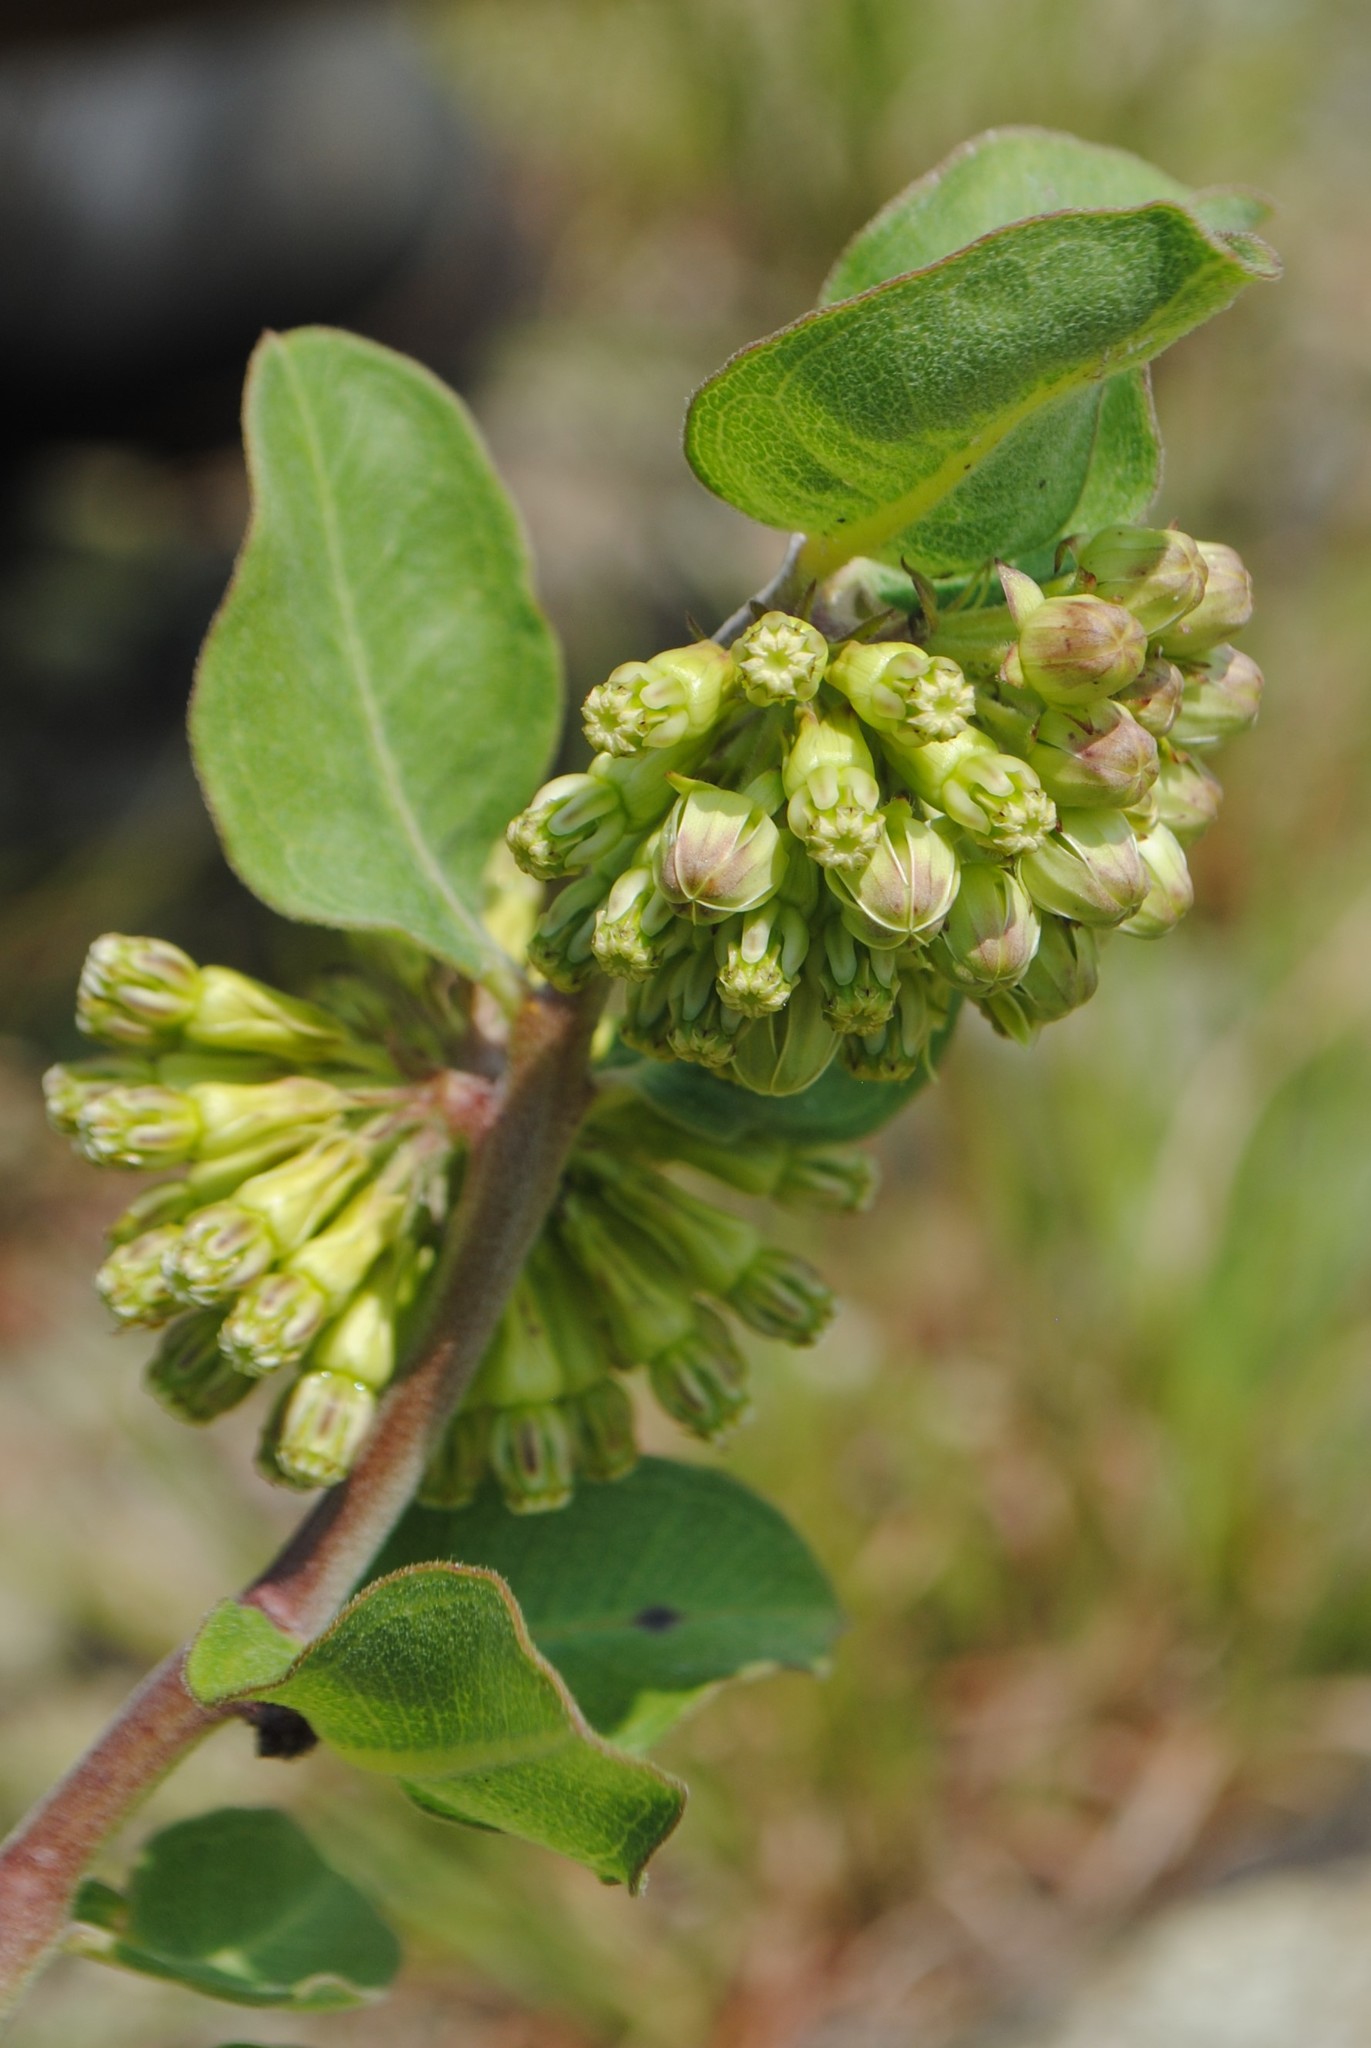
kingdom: Plantae
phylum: Tracheophyta
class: Magnoliopsida
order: Gentianales
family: Apocynaceae
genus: Asclepias
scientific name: Asclepias viridiflora
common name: Green comet milkweed
